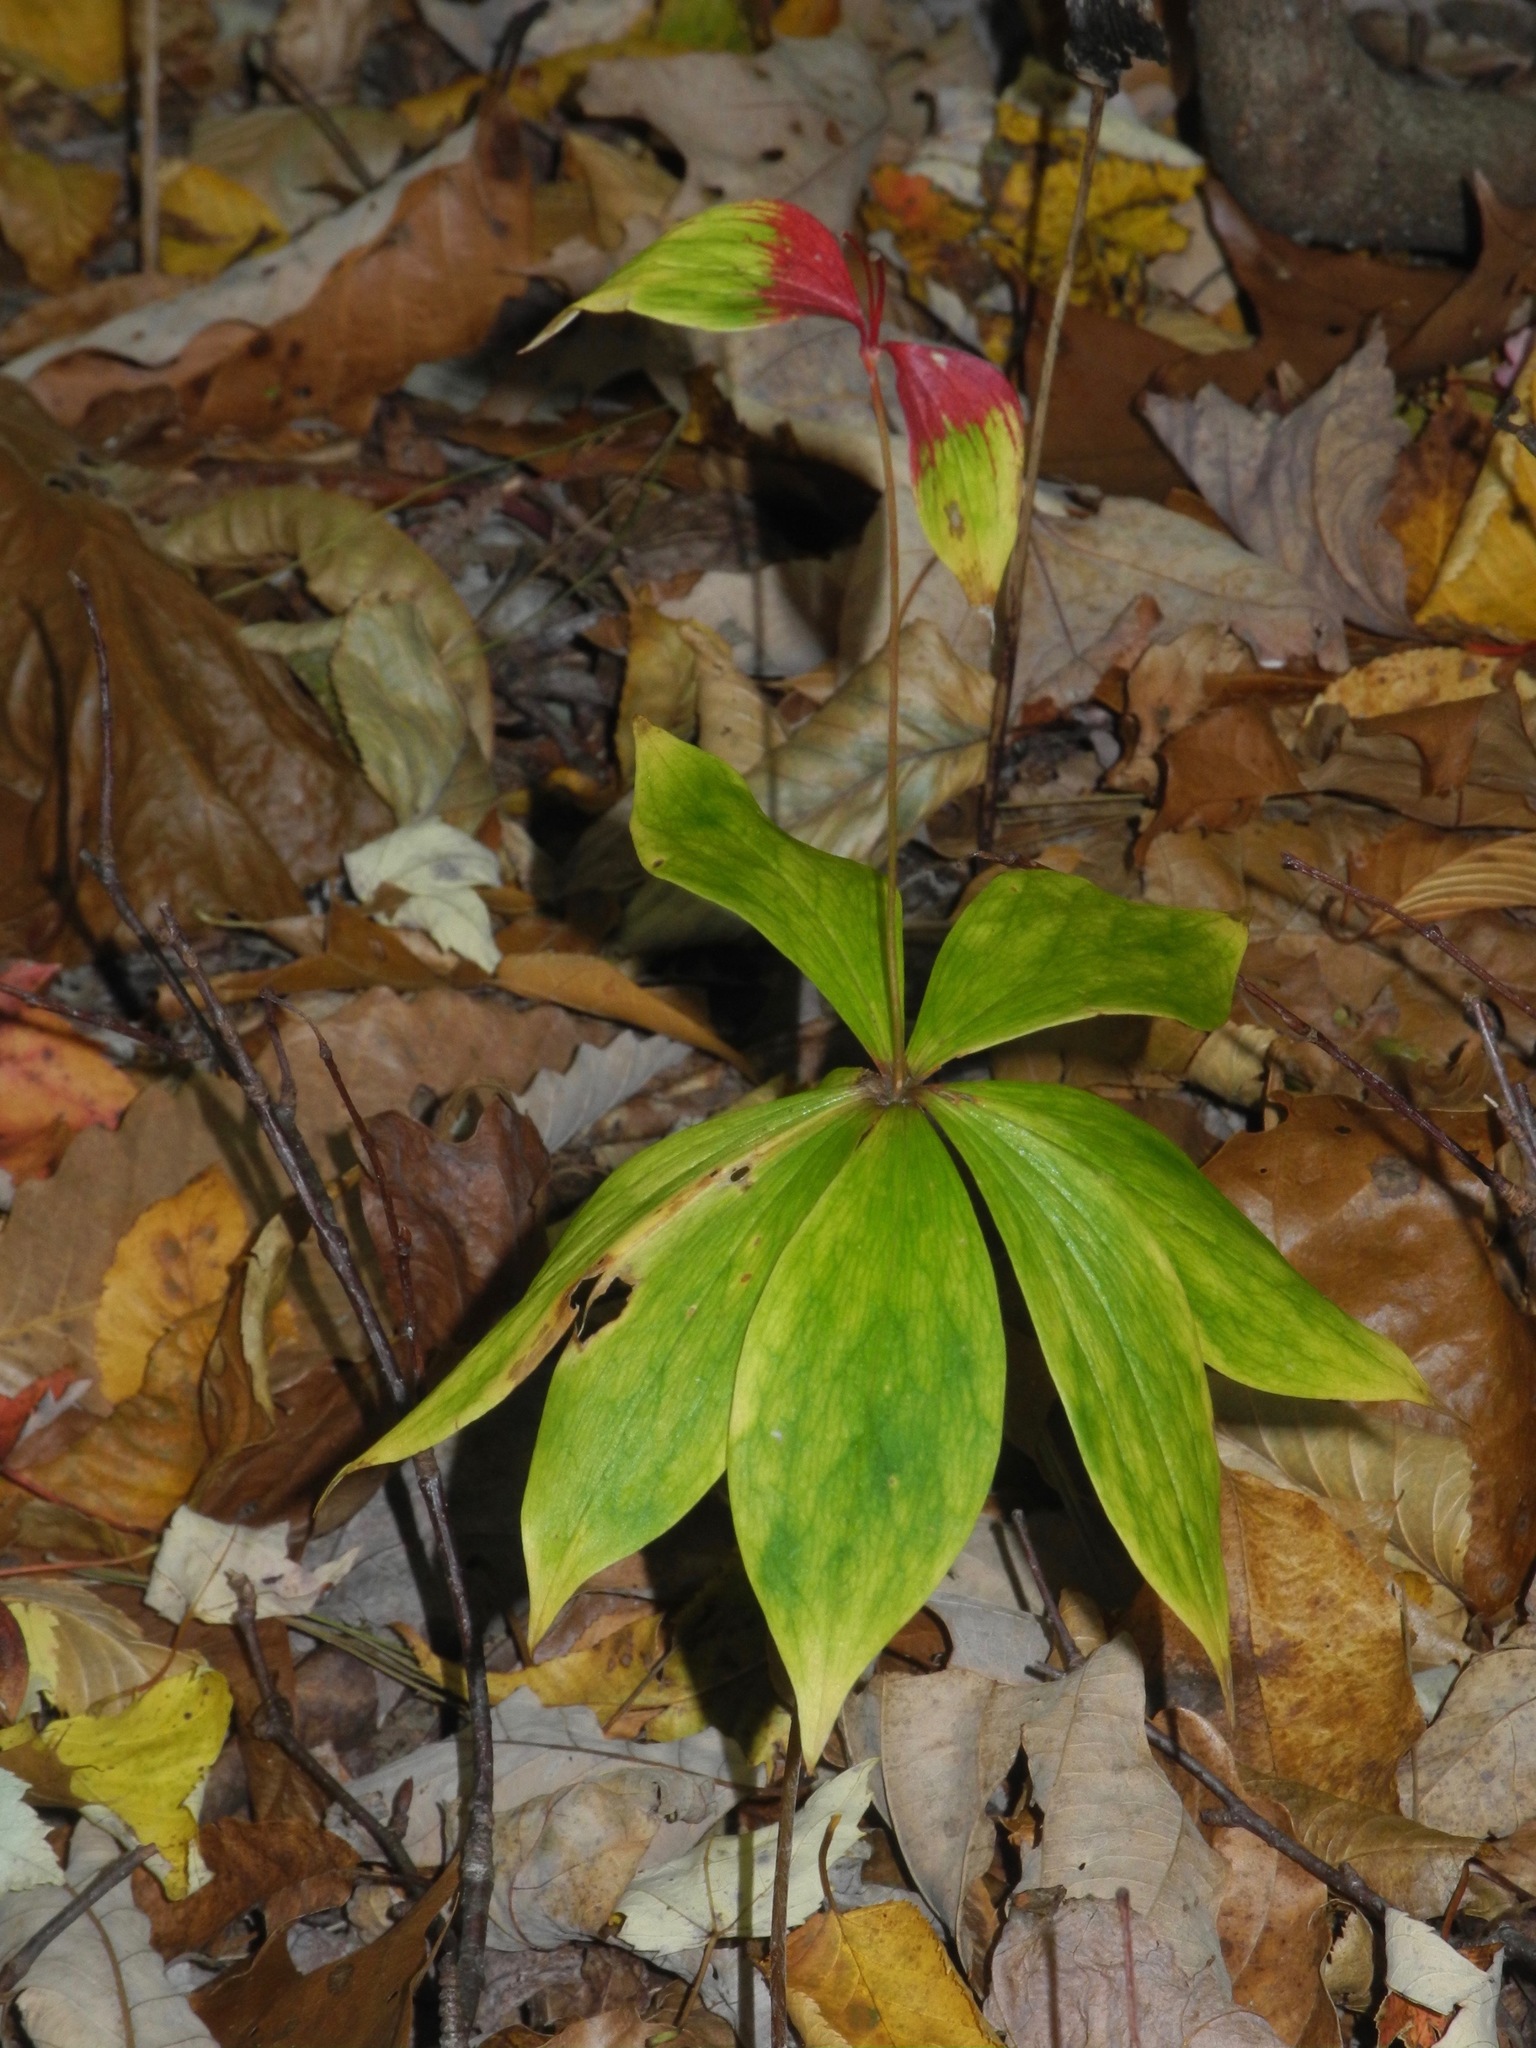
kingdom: Plantae
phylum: Tracheophyta
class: Liliopsida
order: Liliales
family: Liliaceae
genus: Medeola
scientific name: Medeola virginiana
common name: Indian cucumber-root
